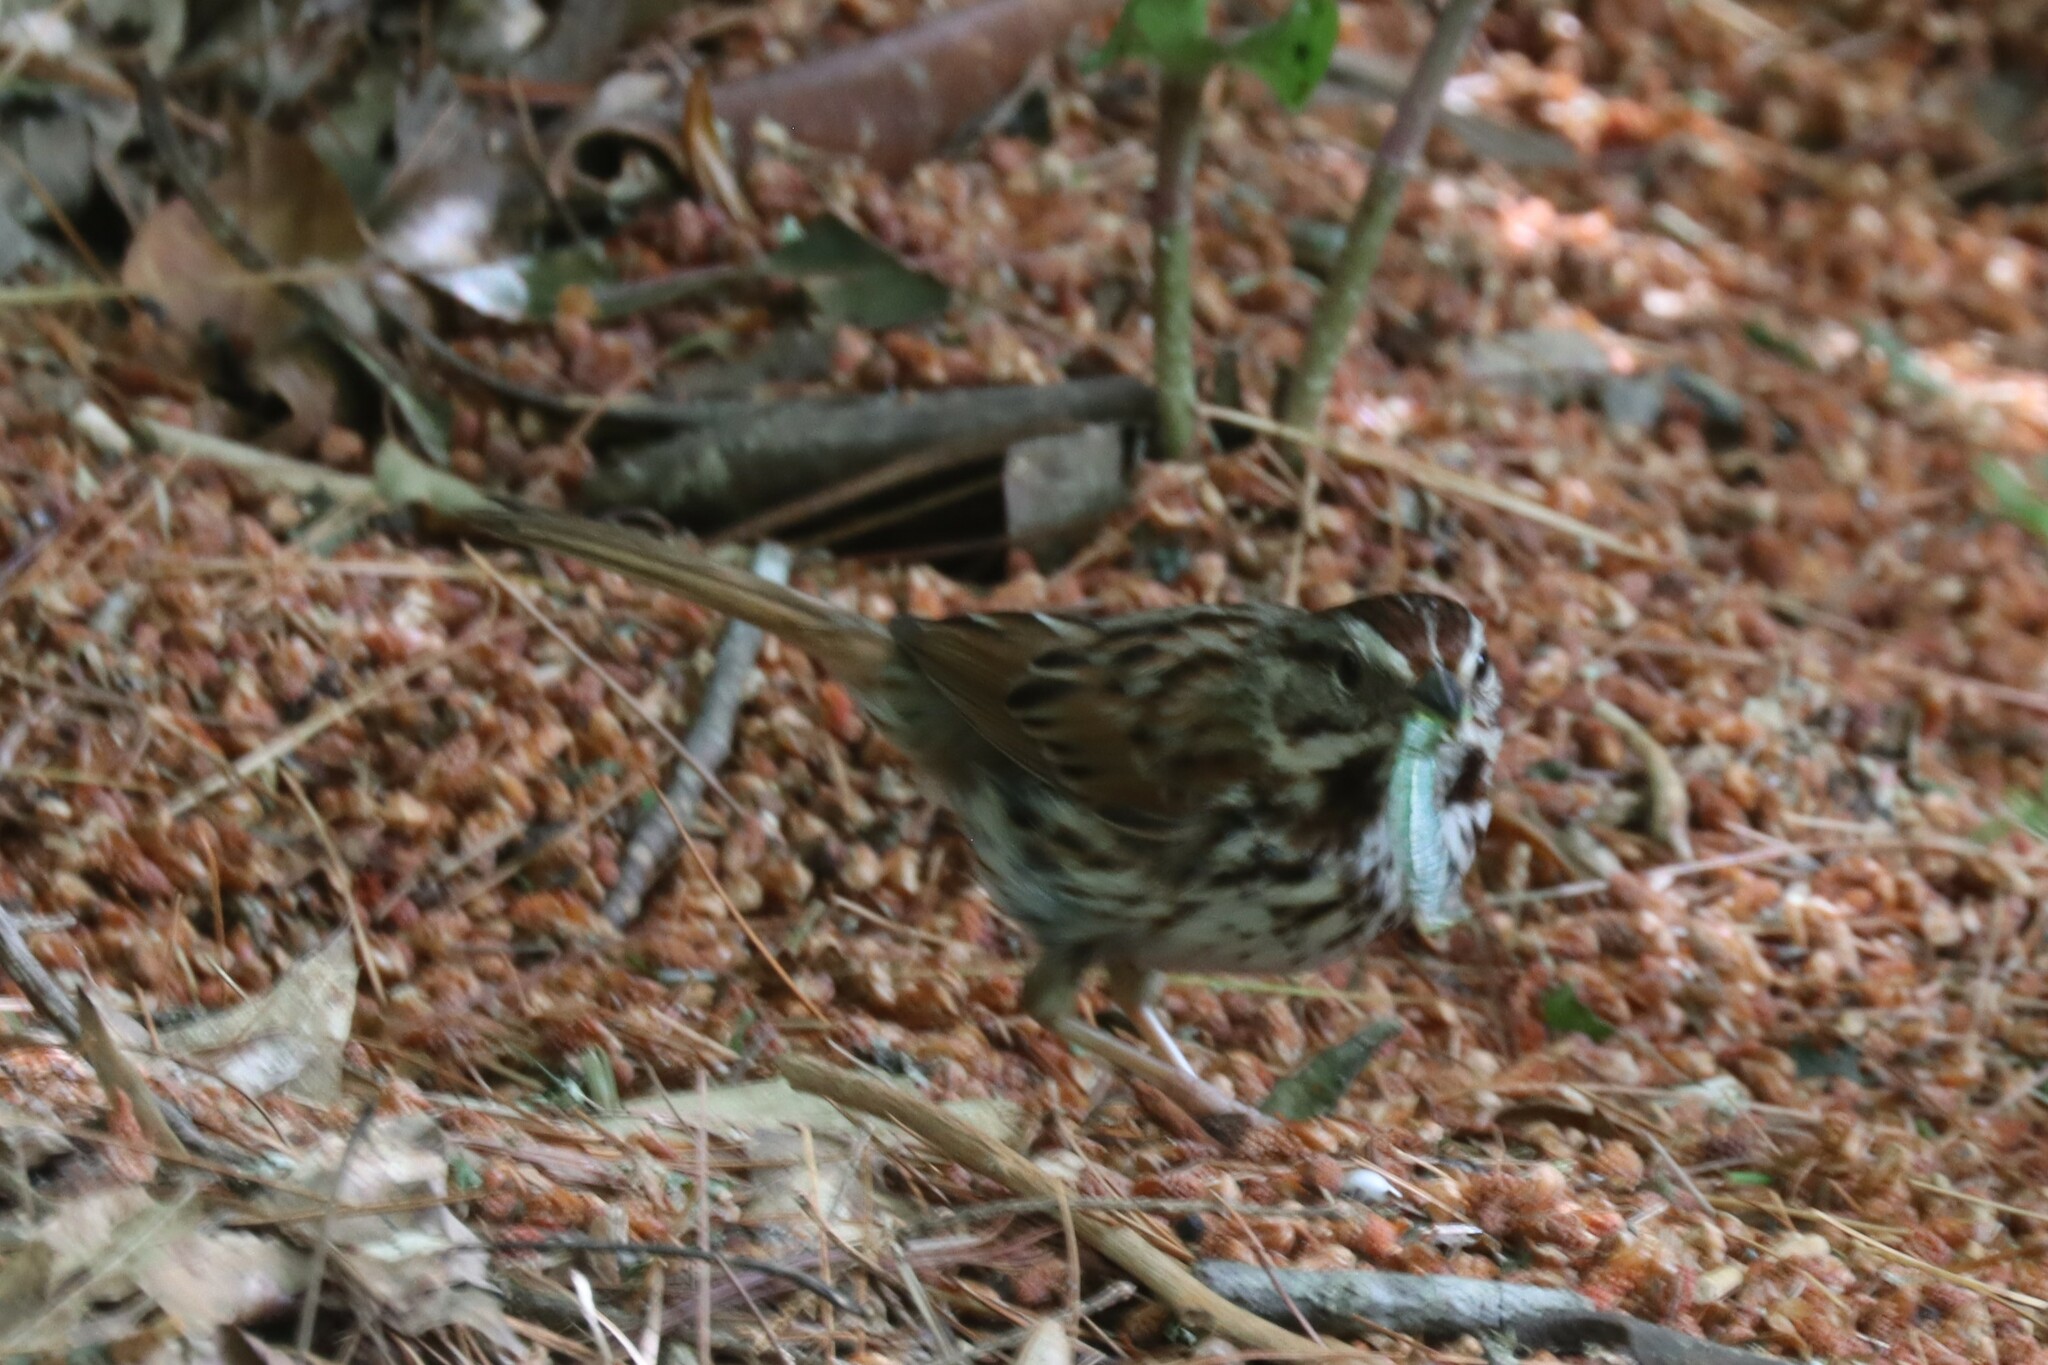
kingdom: Animalia
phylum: Chordata
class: Aves
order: Passeriformes
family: Passerellidae
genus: Melospiza
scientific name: Melospiza melodia
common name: Song sparrow
